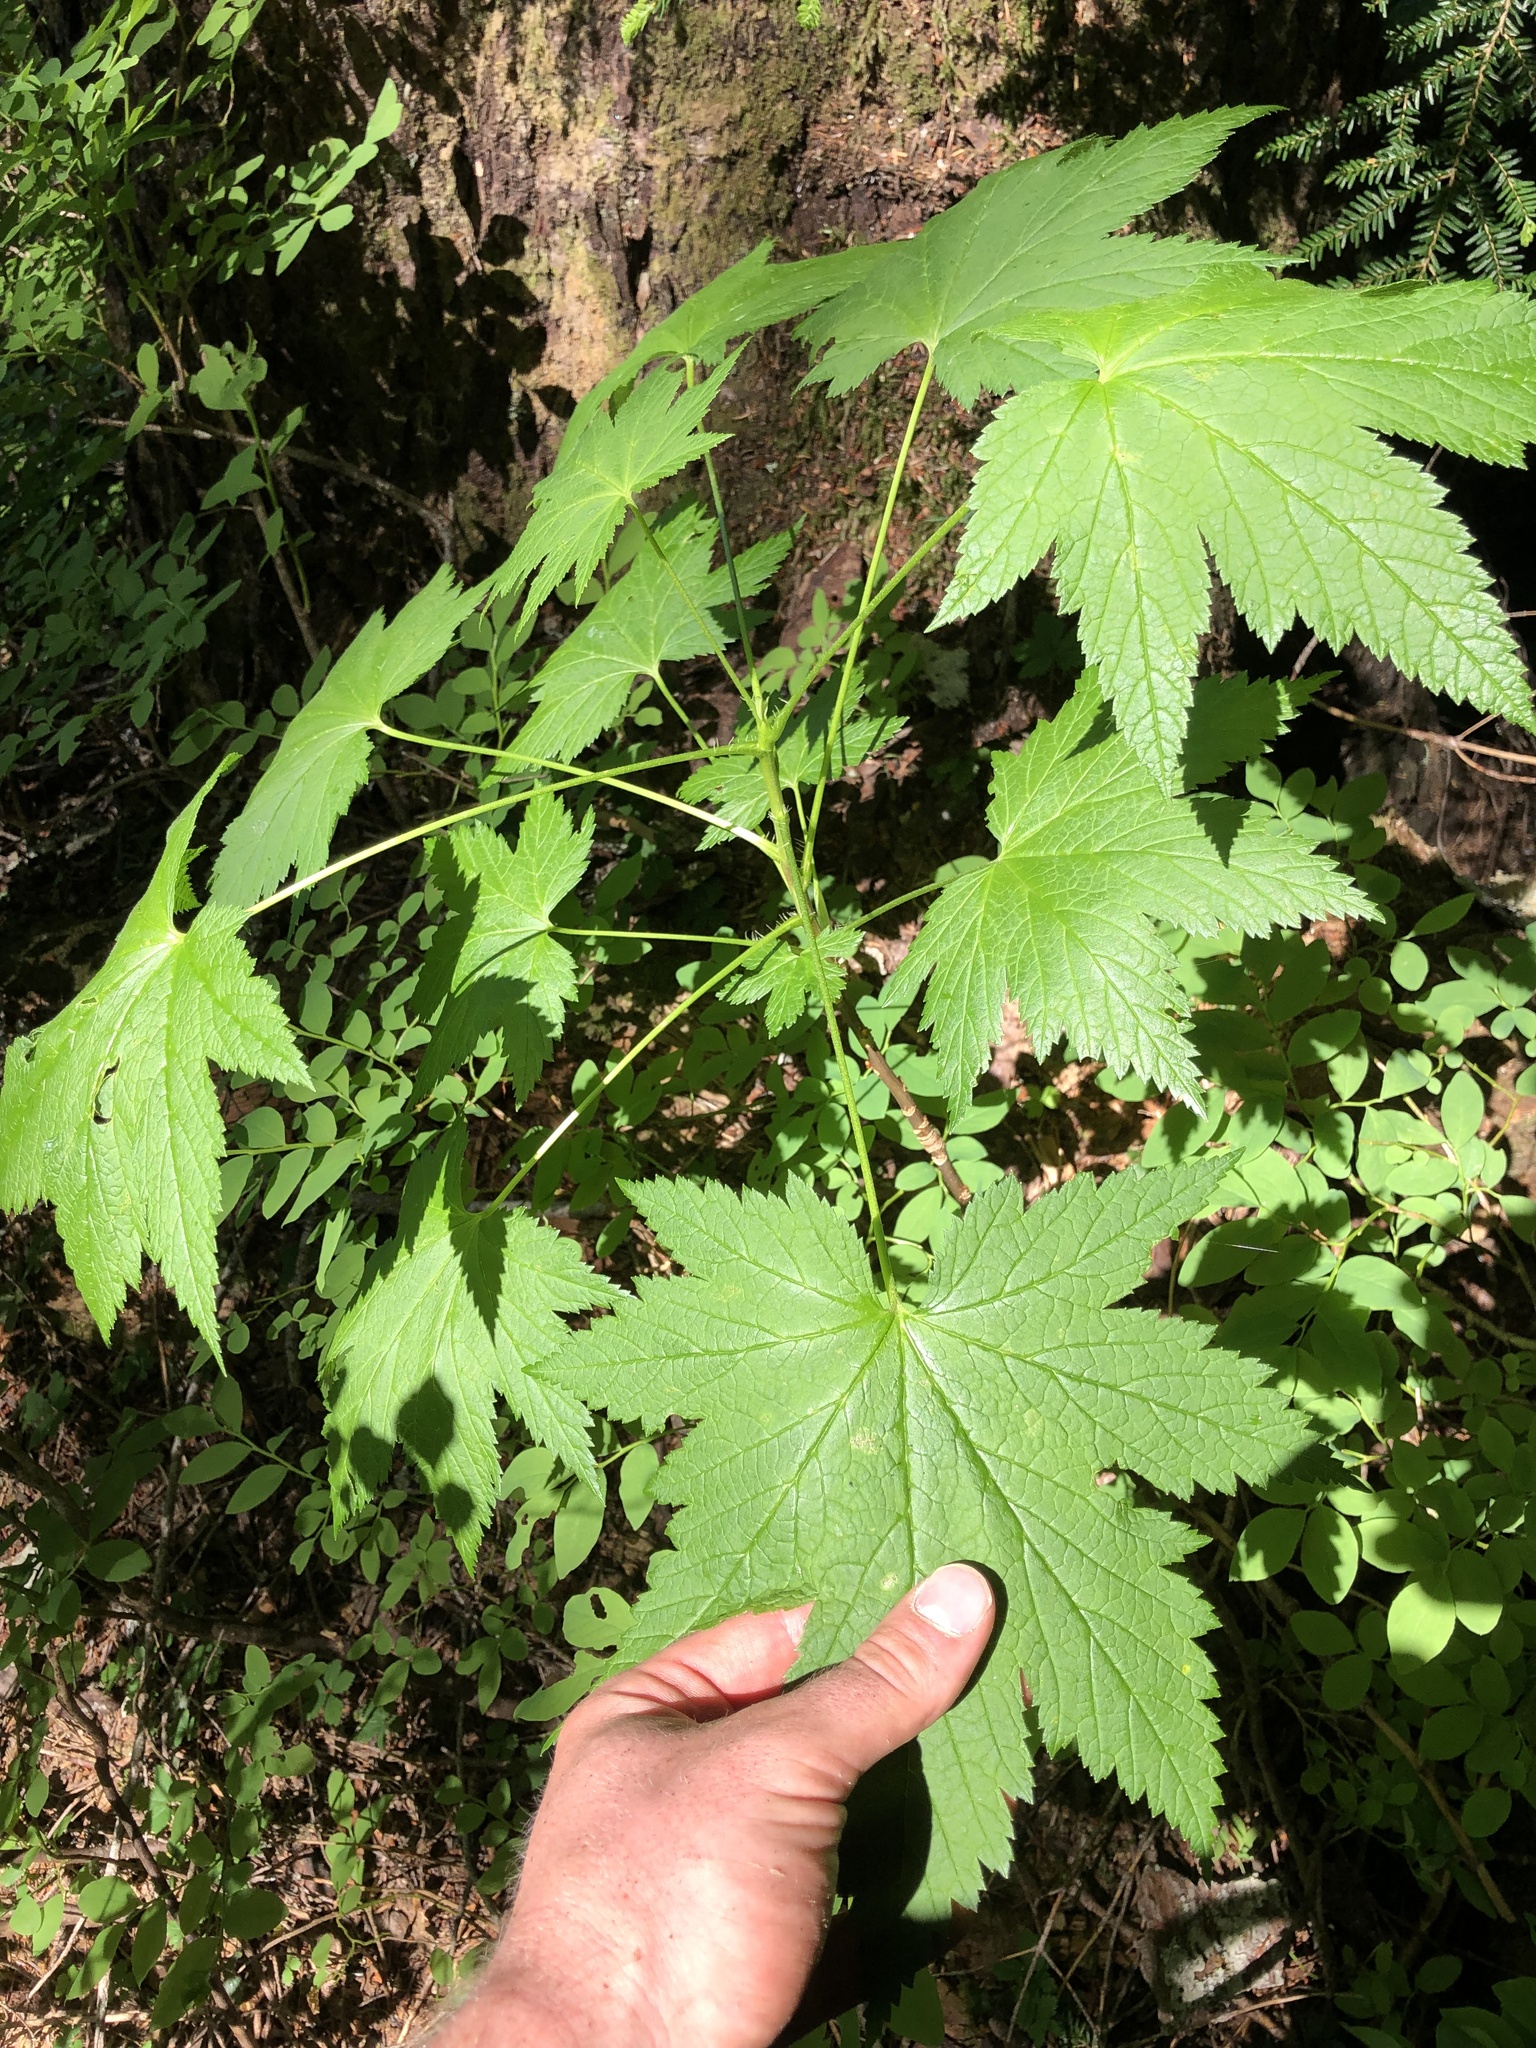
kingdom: Plantae
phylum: Tracheophyta
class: Magnoliopsida
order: Saxifragales
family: Grossulariaceae
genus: Ribes
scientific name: Ribes bracteosum
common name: California black currant
